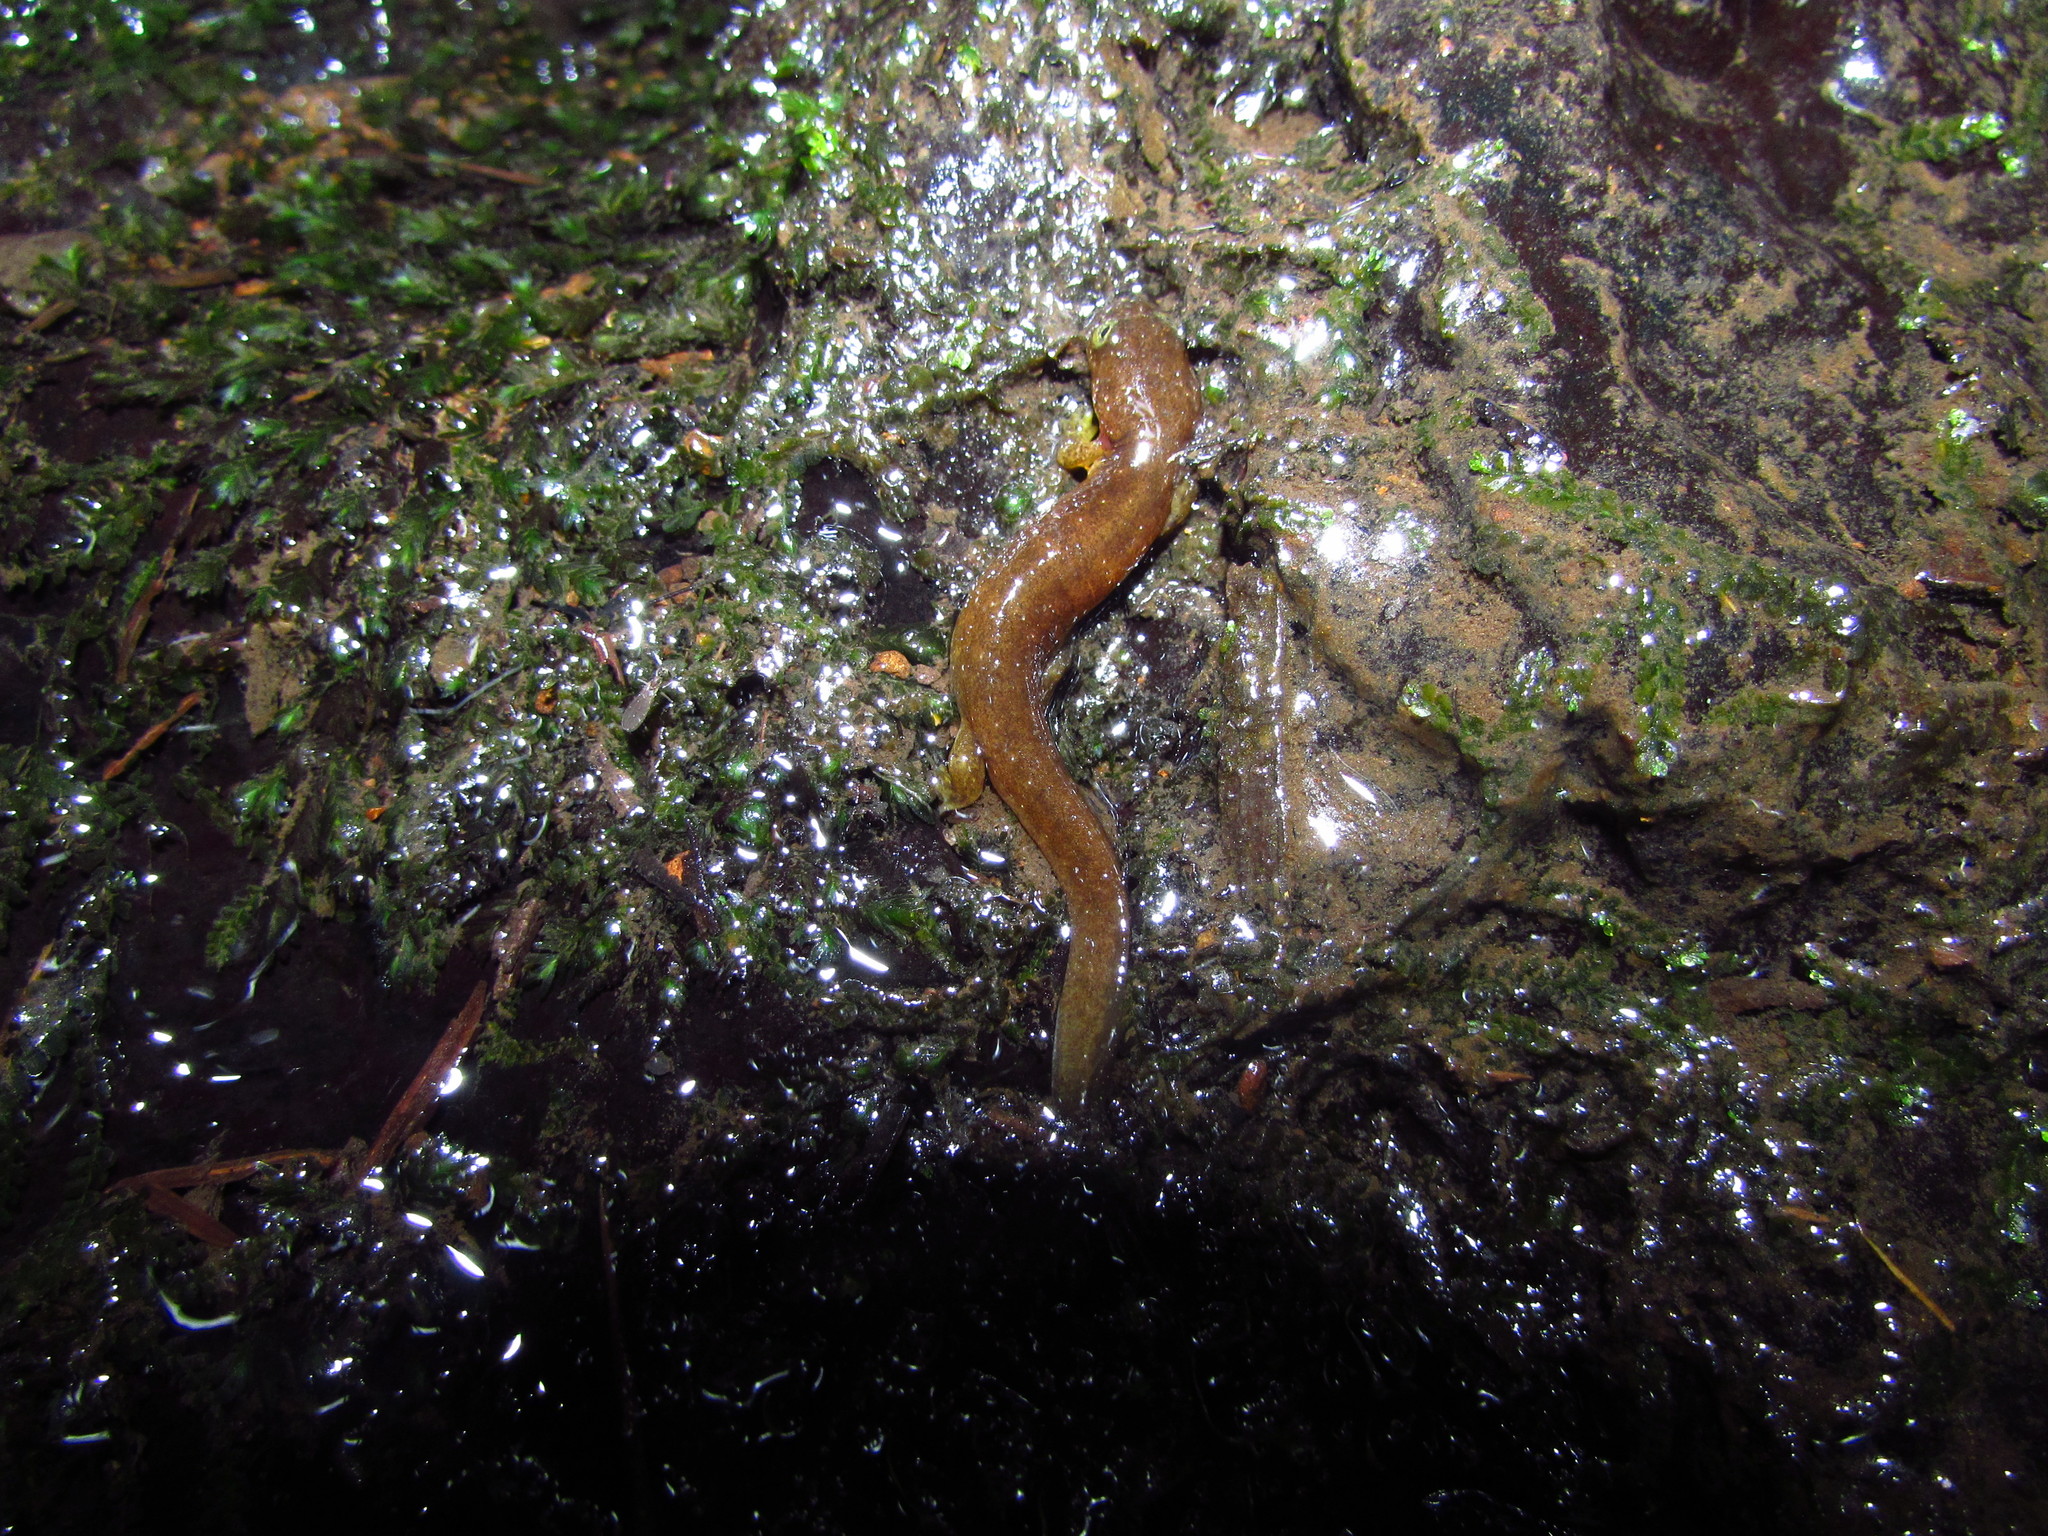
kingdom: Animalia
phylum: Chordata
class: Amphibia
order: Caudata
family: Rhyacotritonidae
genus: Rhyacotriton
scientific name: Rhyacotriton kezeri
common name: Columbia torrent salamander
